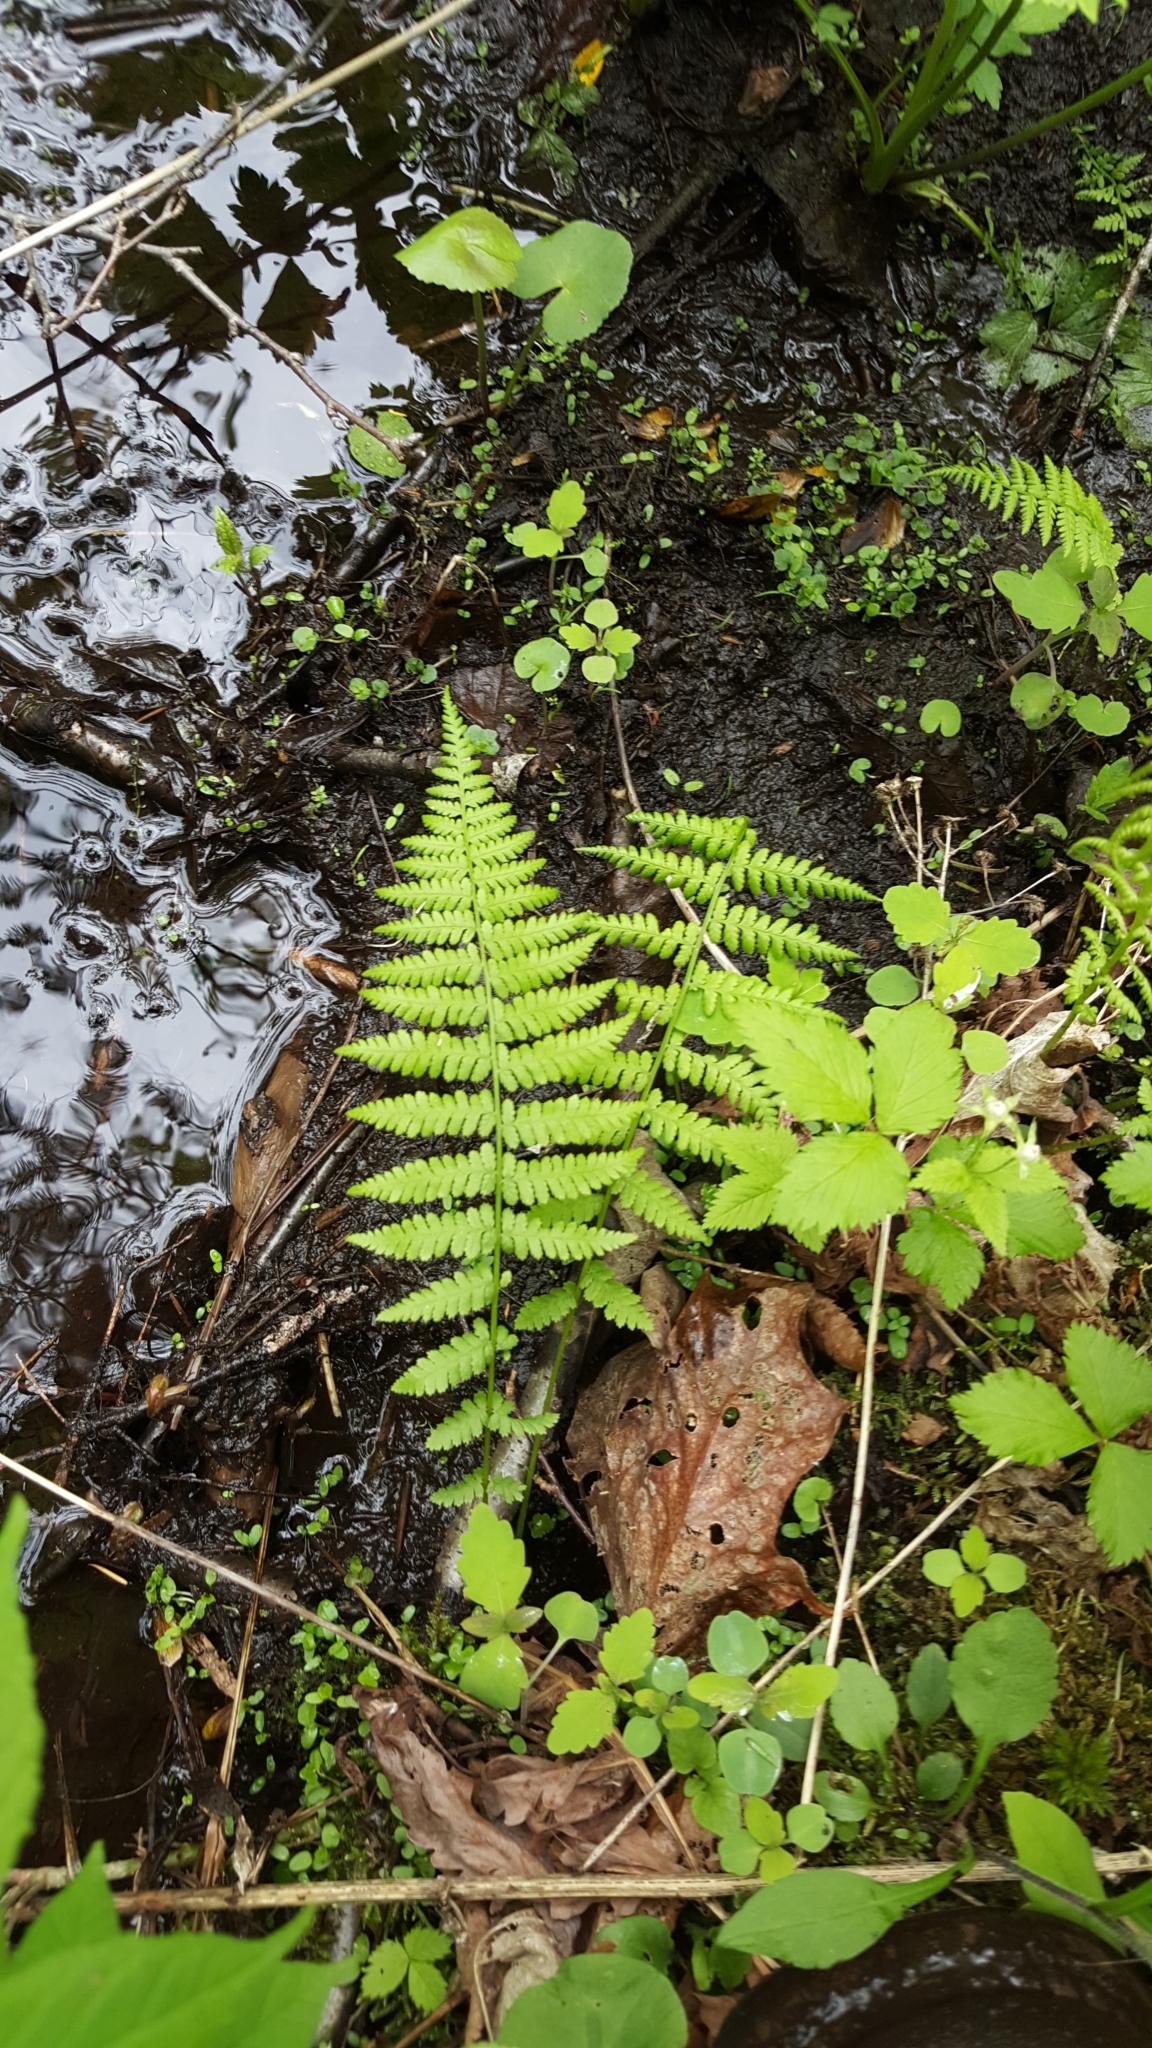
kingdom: Plantae
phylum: Tracheophyta
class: Polypodiopsida
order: Polypodiales
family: Thelypteridaceae
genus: Amauropelta
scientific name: Amauropelta noveboracensis
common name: New york fern
